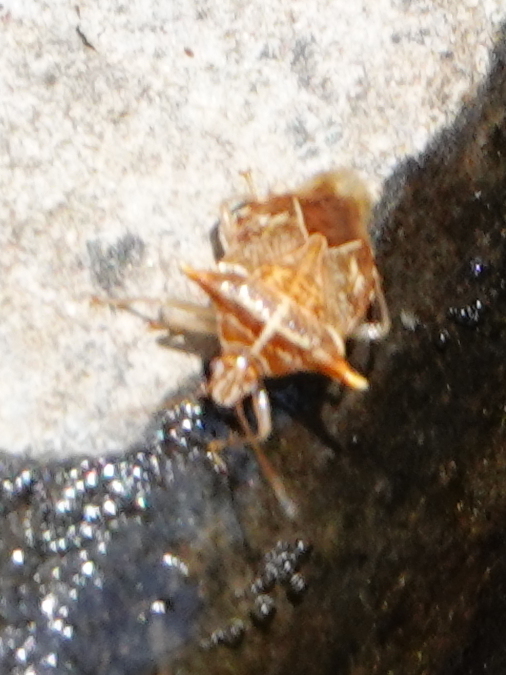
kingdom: Animalia
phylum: Arthropoda
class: Insecta
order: Hemiptera
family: Acanthosomatidae
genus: Elasmucha
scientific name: Elasmucha truncatula
